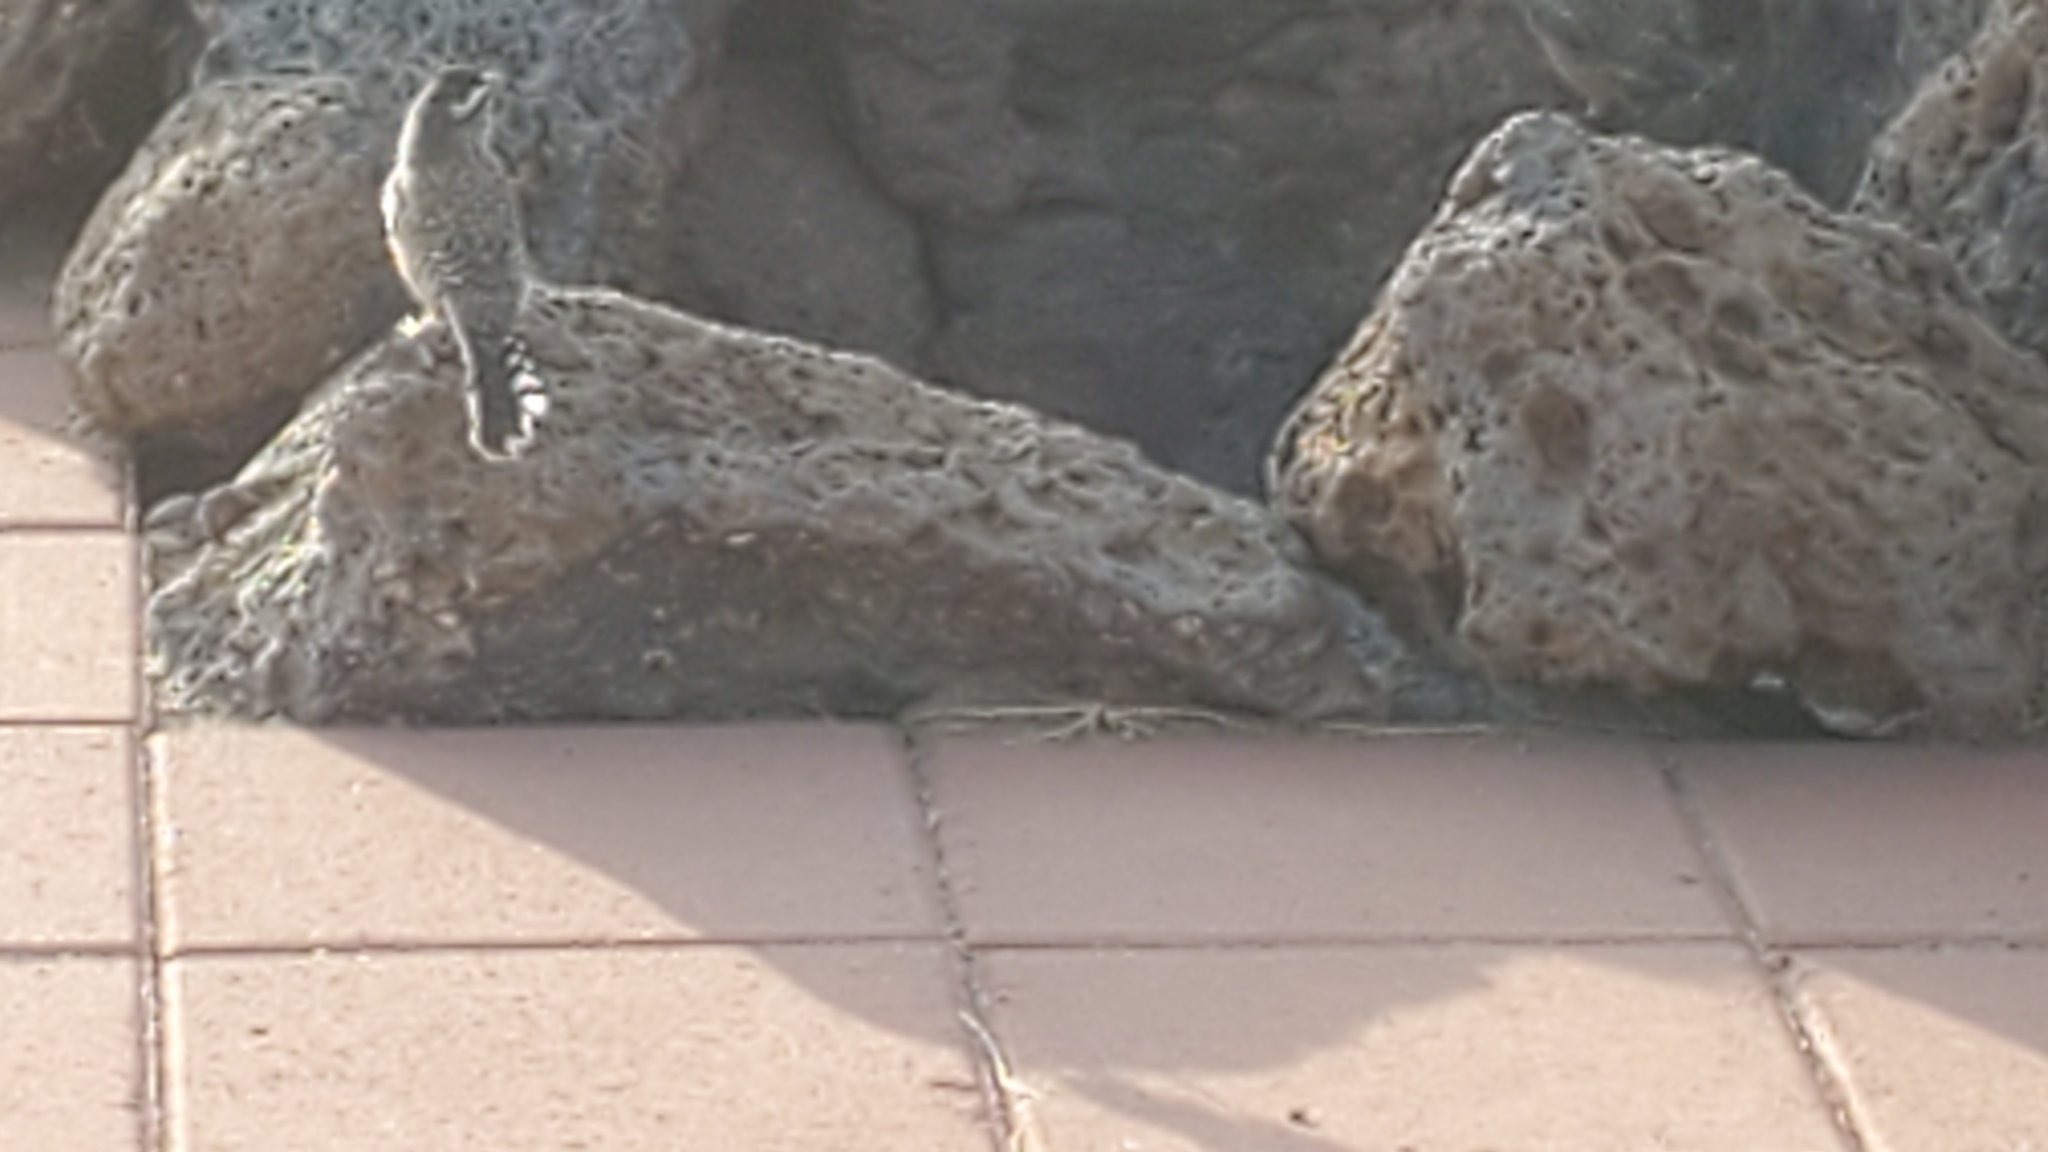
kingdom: Animalia
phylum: Chordata
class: Aves
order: Passeriformes
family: Troglodytidae
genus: Campylorhynchus
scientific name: Campylorhynchus brunneicapillus
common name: Cactus wren
